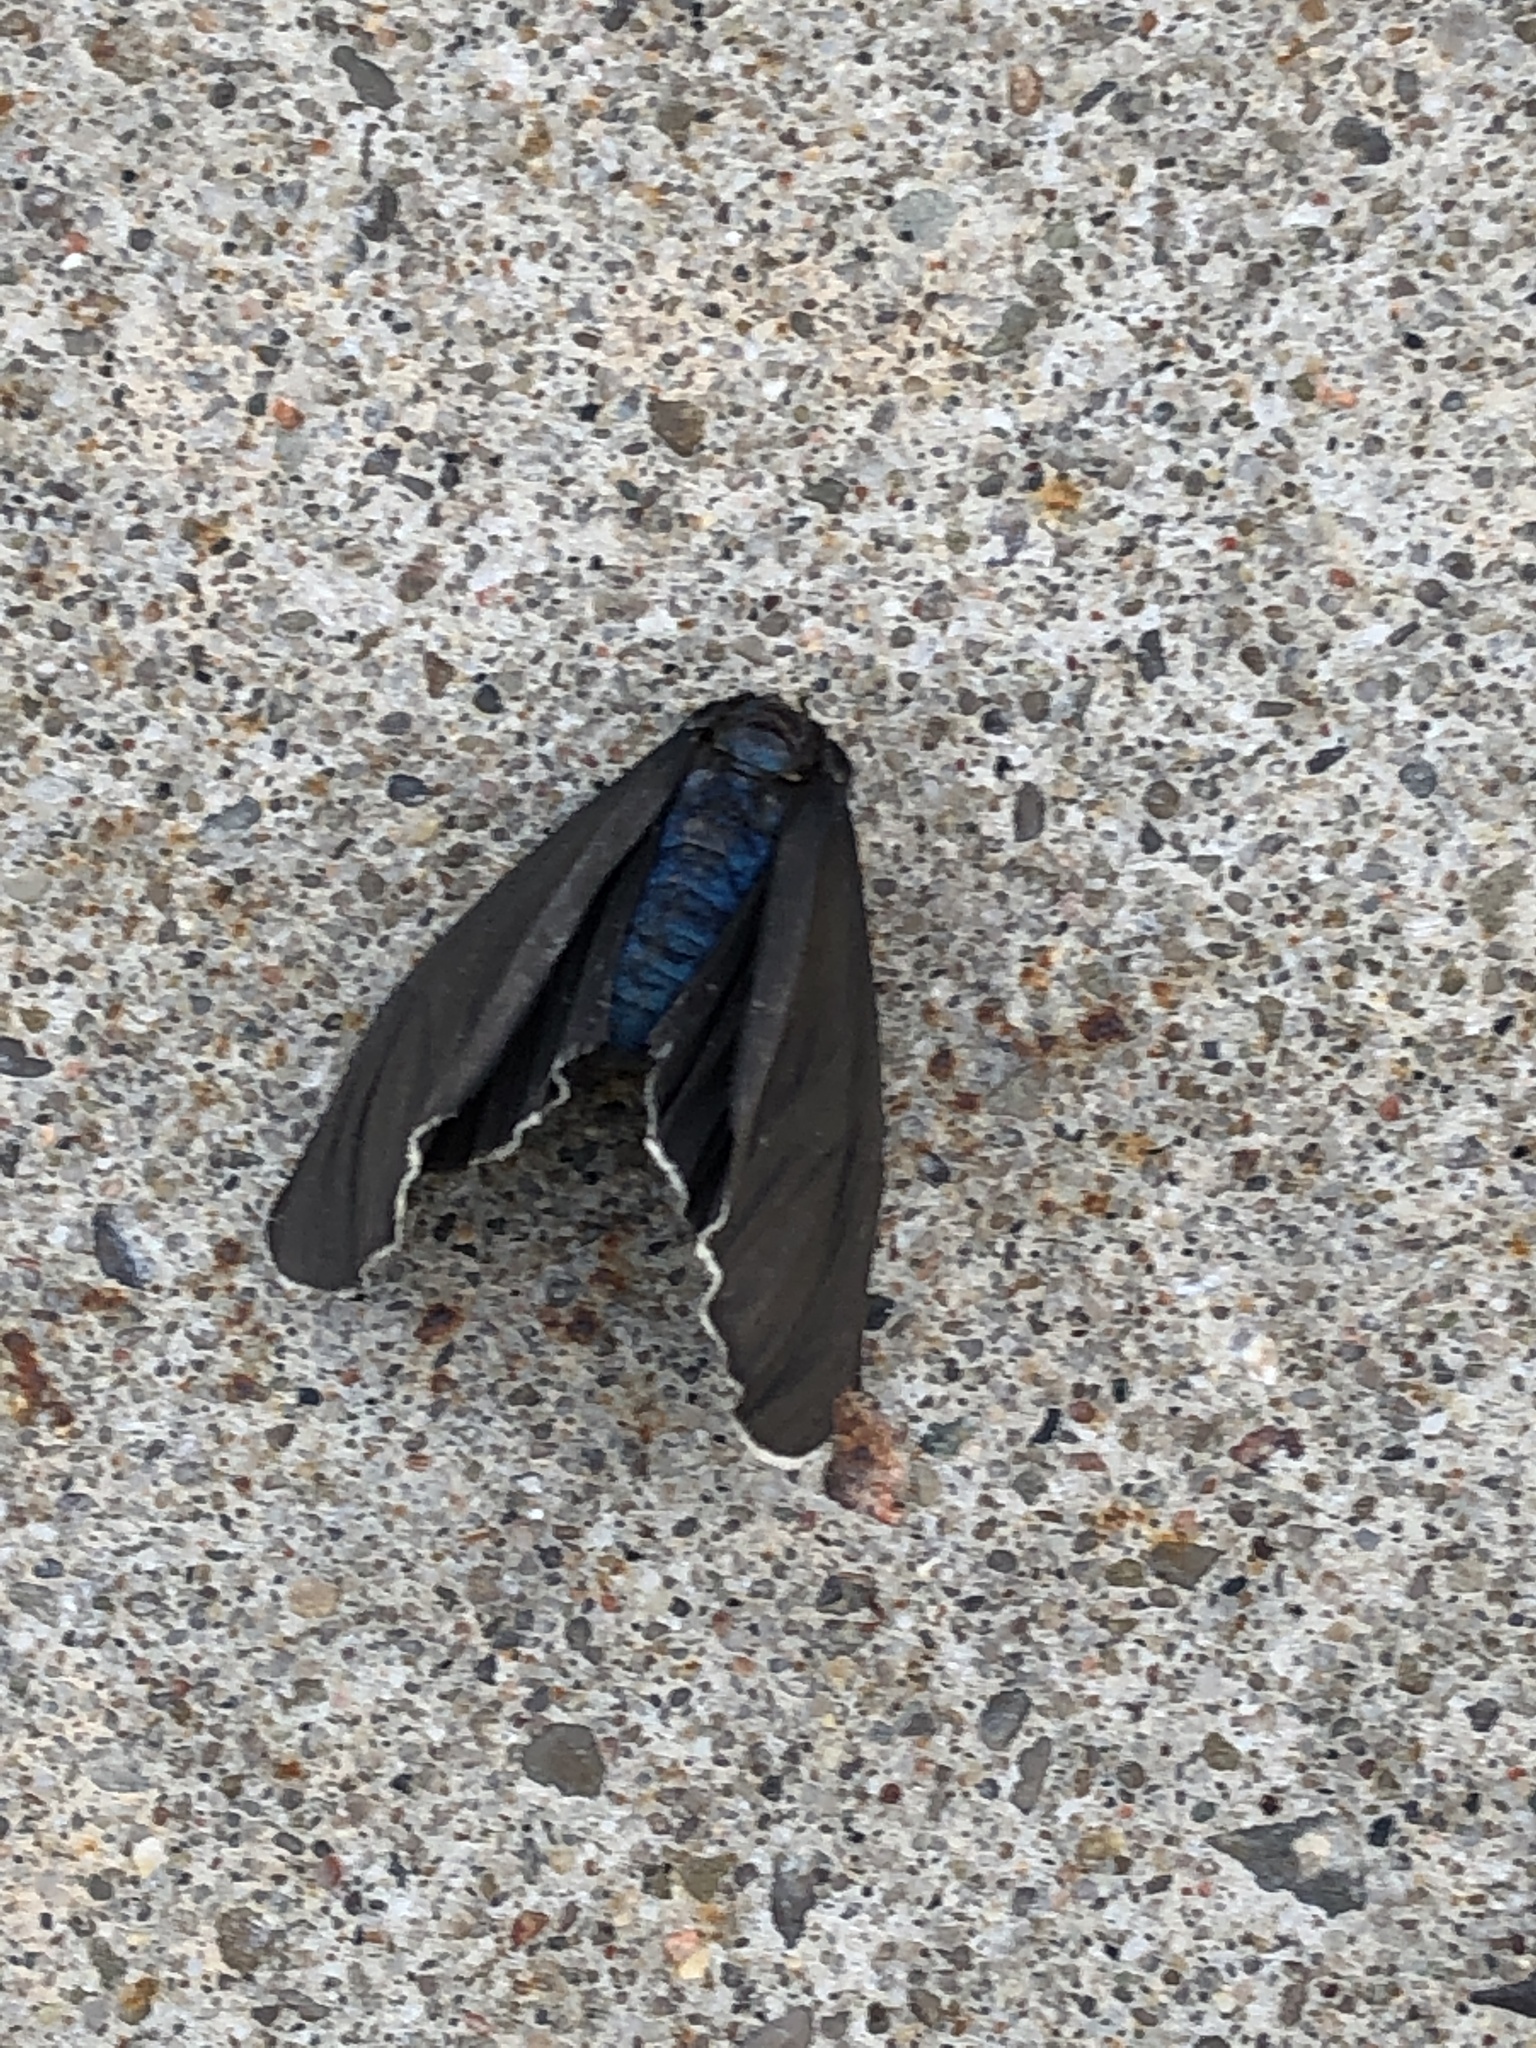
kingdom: Animalia
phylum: Arthropoda
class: Insecta
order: Lepidoptera
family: Erebidae
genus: Ctenucha
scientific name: Ctenucha virginica
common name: Virginia ctenucha moth
